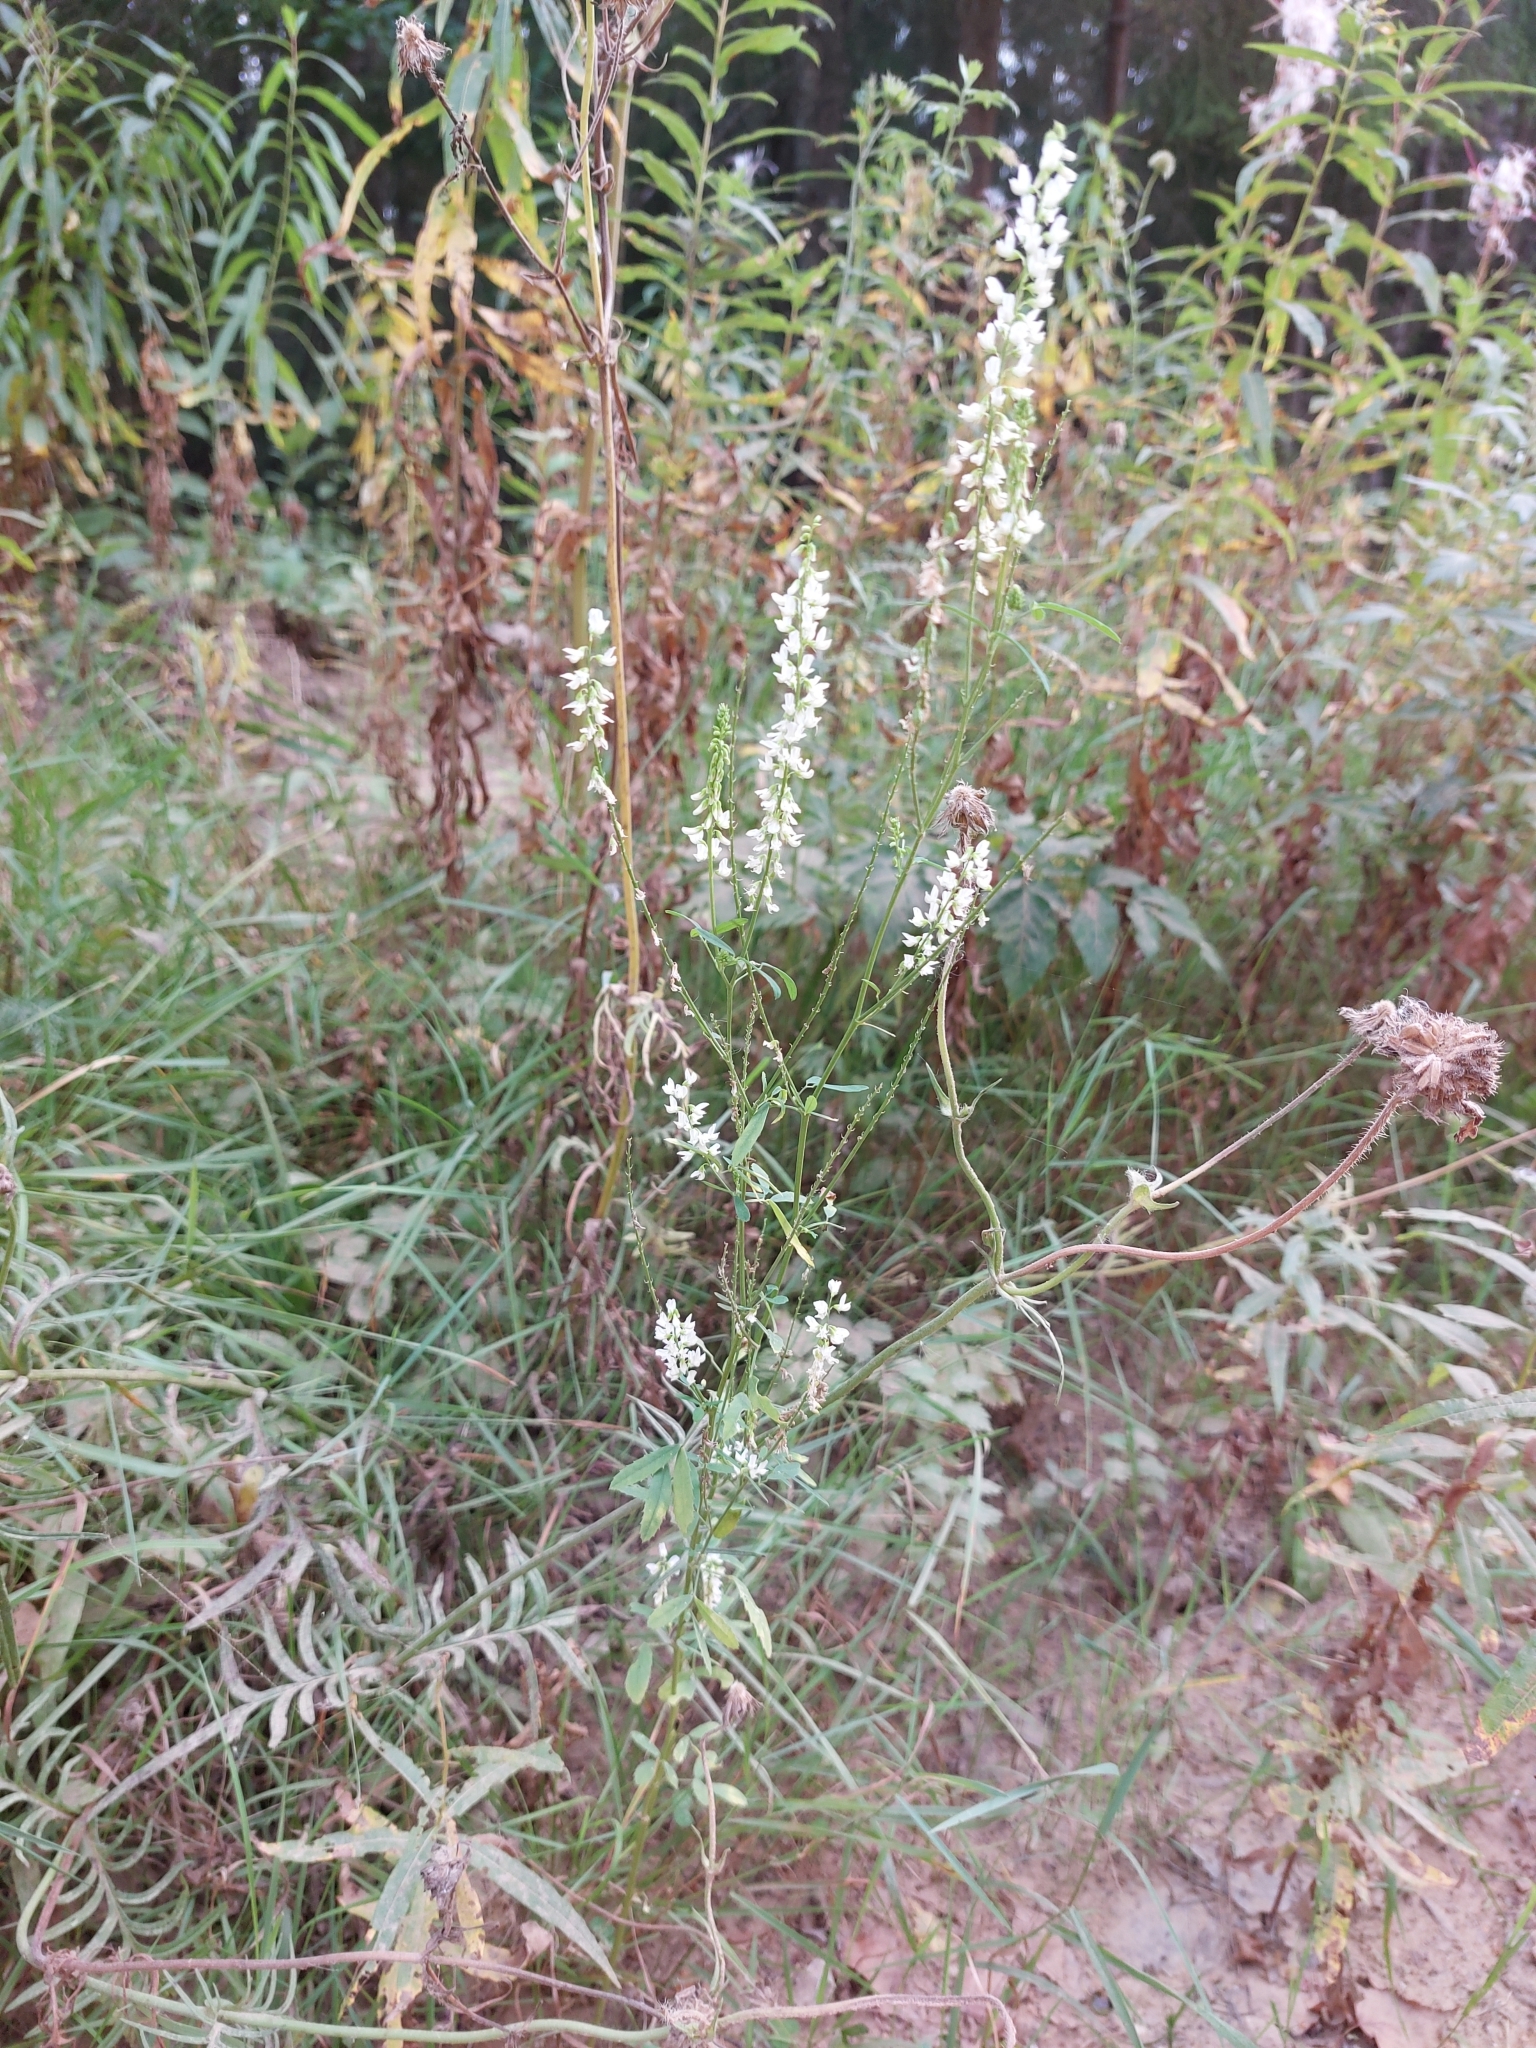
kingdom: Plantae
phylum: Tracheophyta
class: Magnoliopsida
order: Fabales
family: Fabaceae
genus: Melilotus
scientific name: Melilotus albus
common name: White melilot
